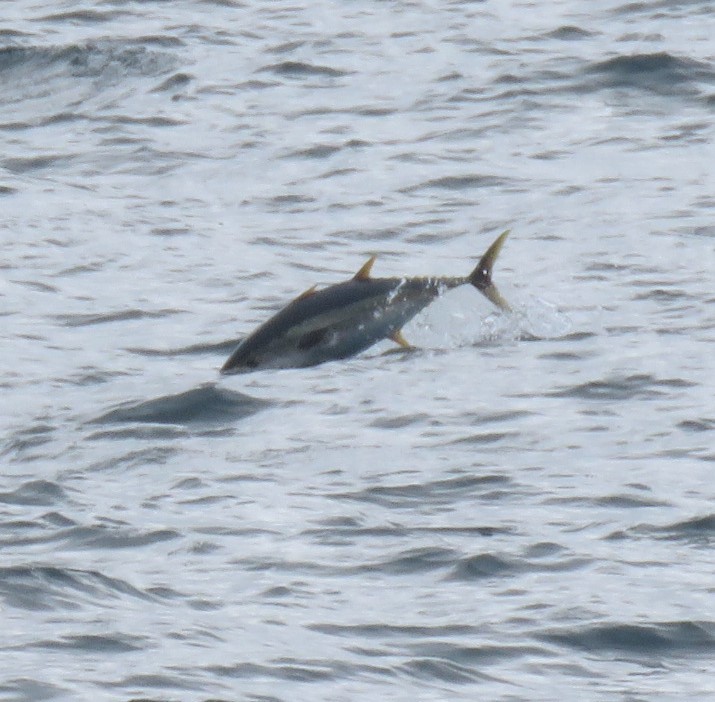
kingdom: Animalia
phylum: Chordata
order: Perciformes
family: Scombridae
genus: Thunnus
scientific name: Thunnus albacares
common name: Yellowfin tuna
